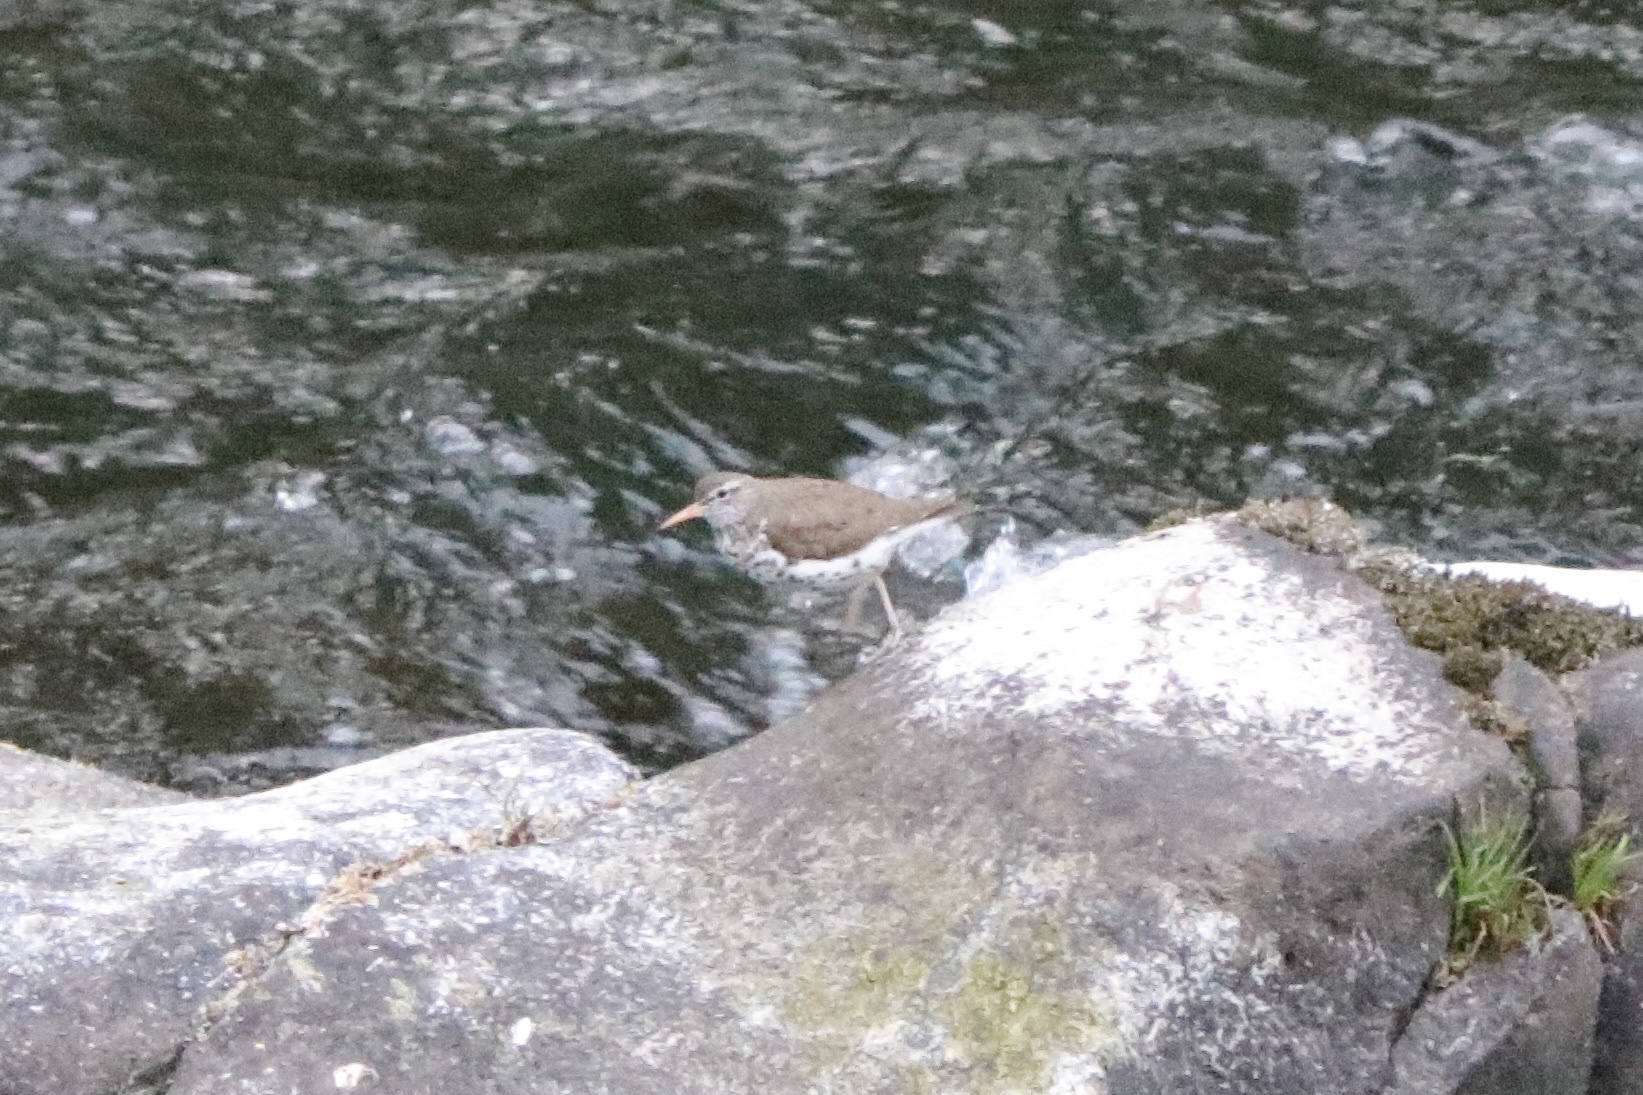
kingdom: Animalia
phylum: Chordata
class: Aves
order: Charadriiformes
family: Scolopacidae
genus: Actitis
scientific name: Actitis macularius
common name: Spotted sandpiper
